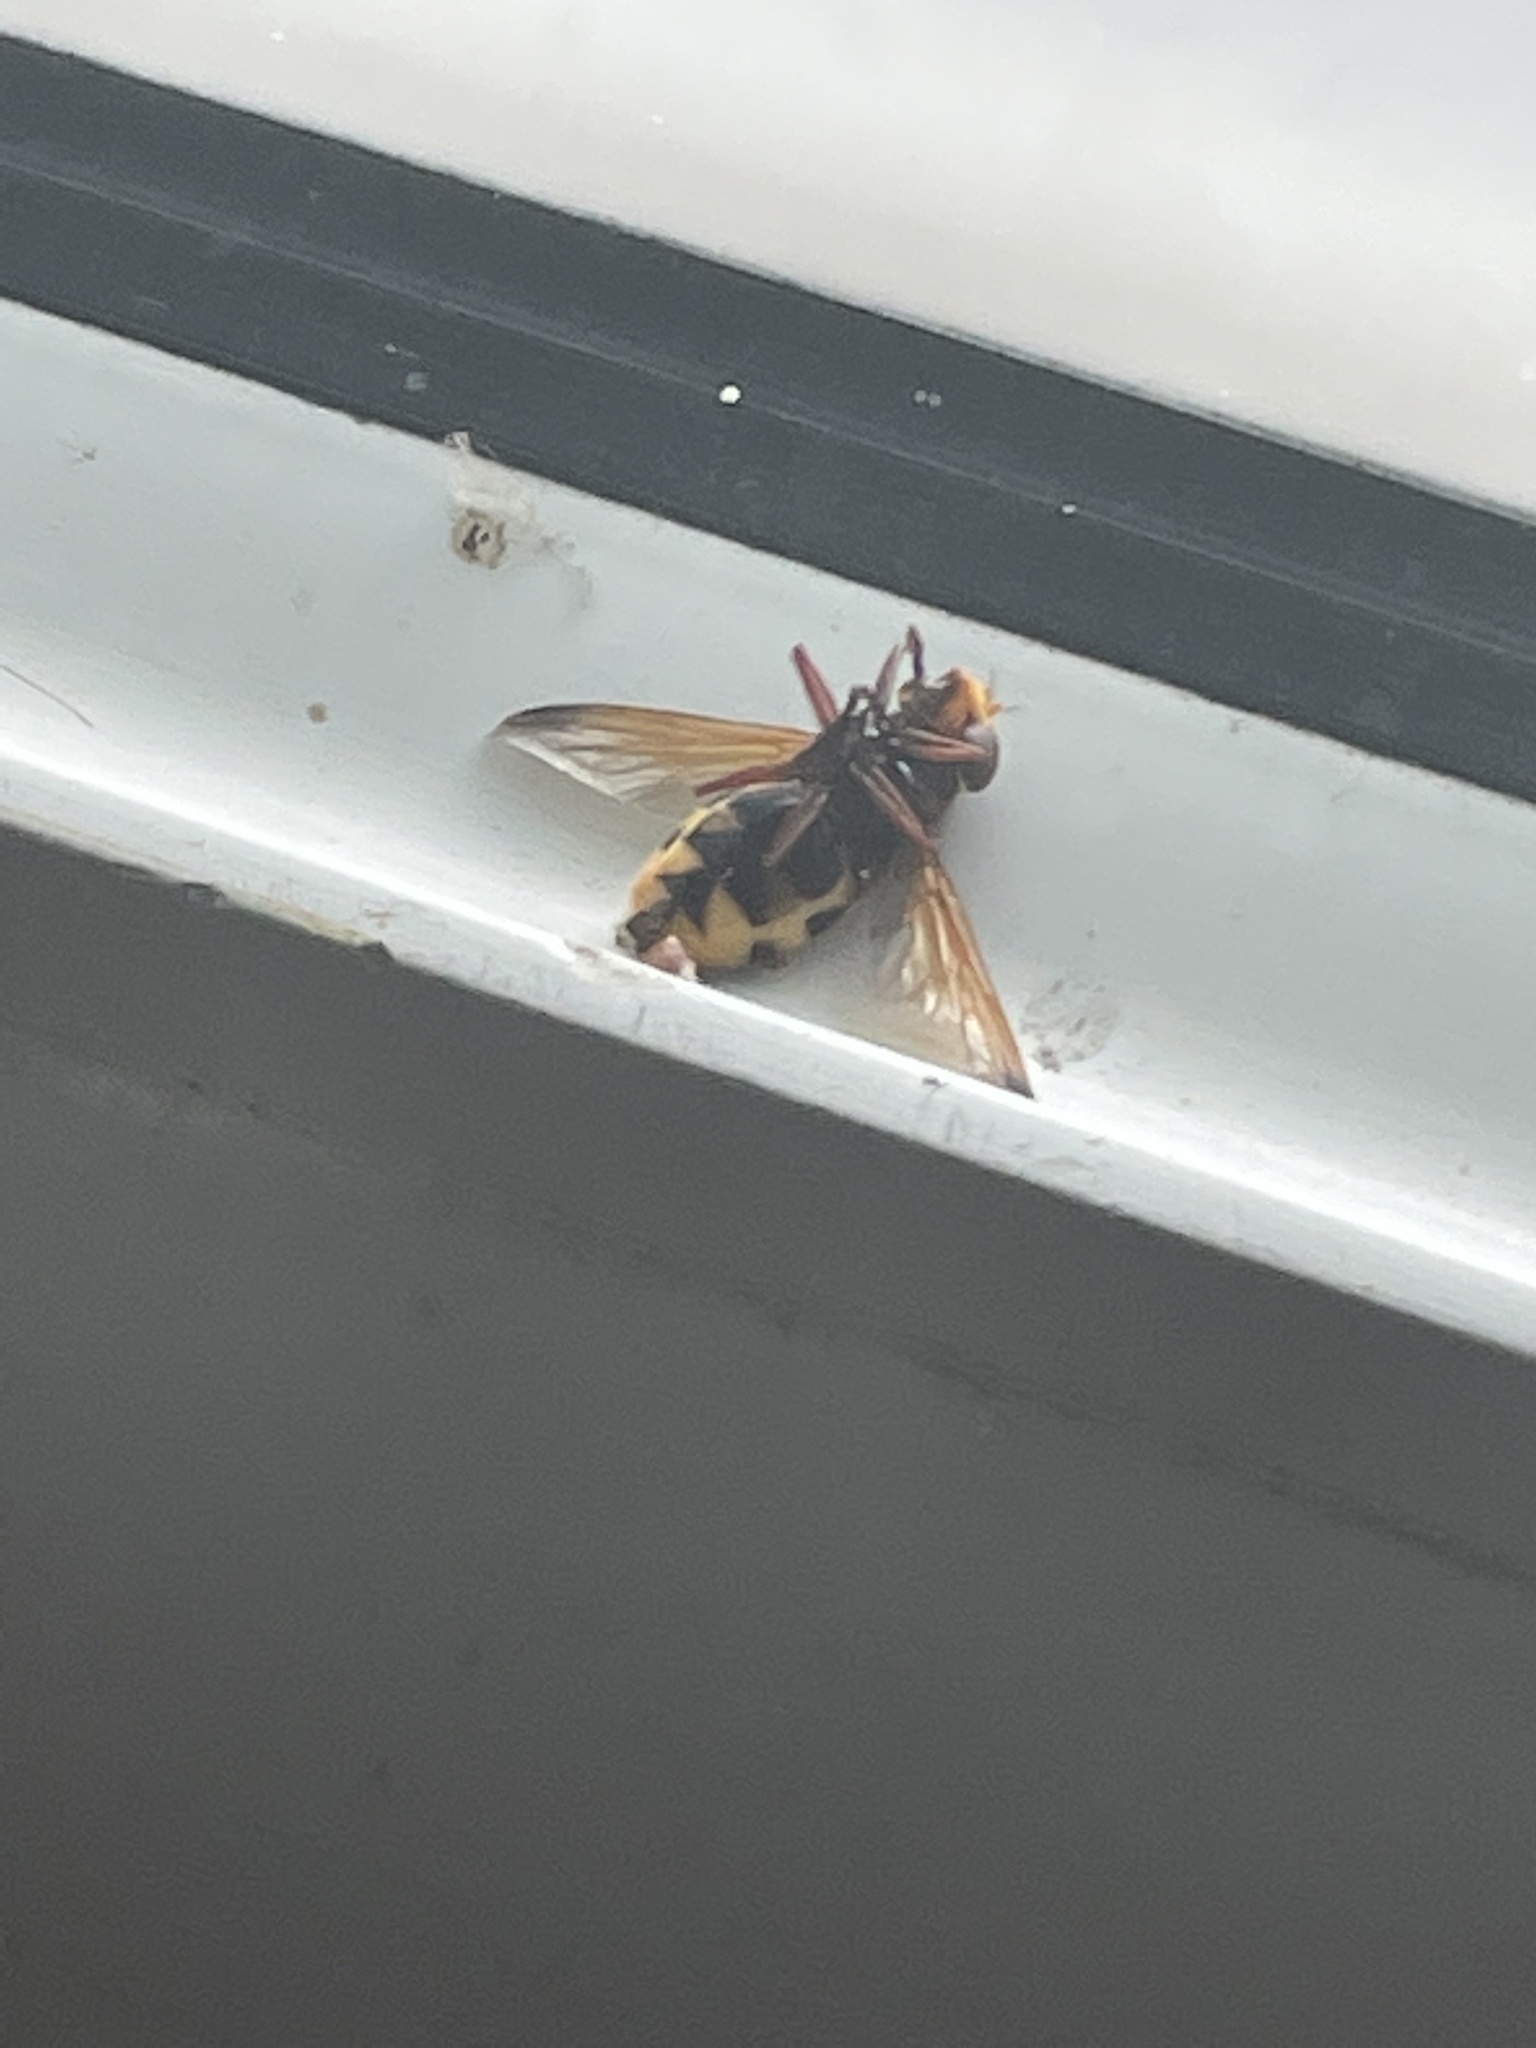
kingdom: Animalia
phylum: Arthropoda
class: Insecta
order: Diptera
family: Syrphidae
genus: Volucella
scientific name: Volucella zonaria
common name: Hornet hoverfly
